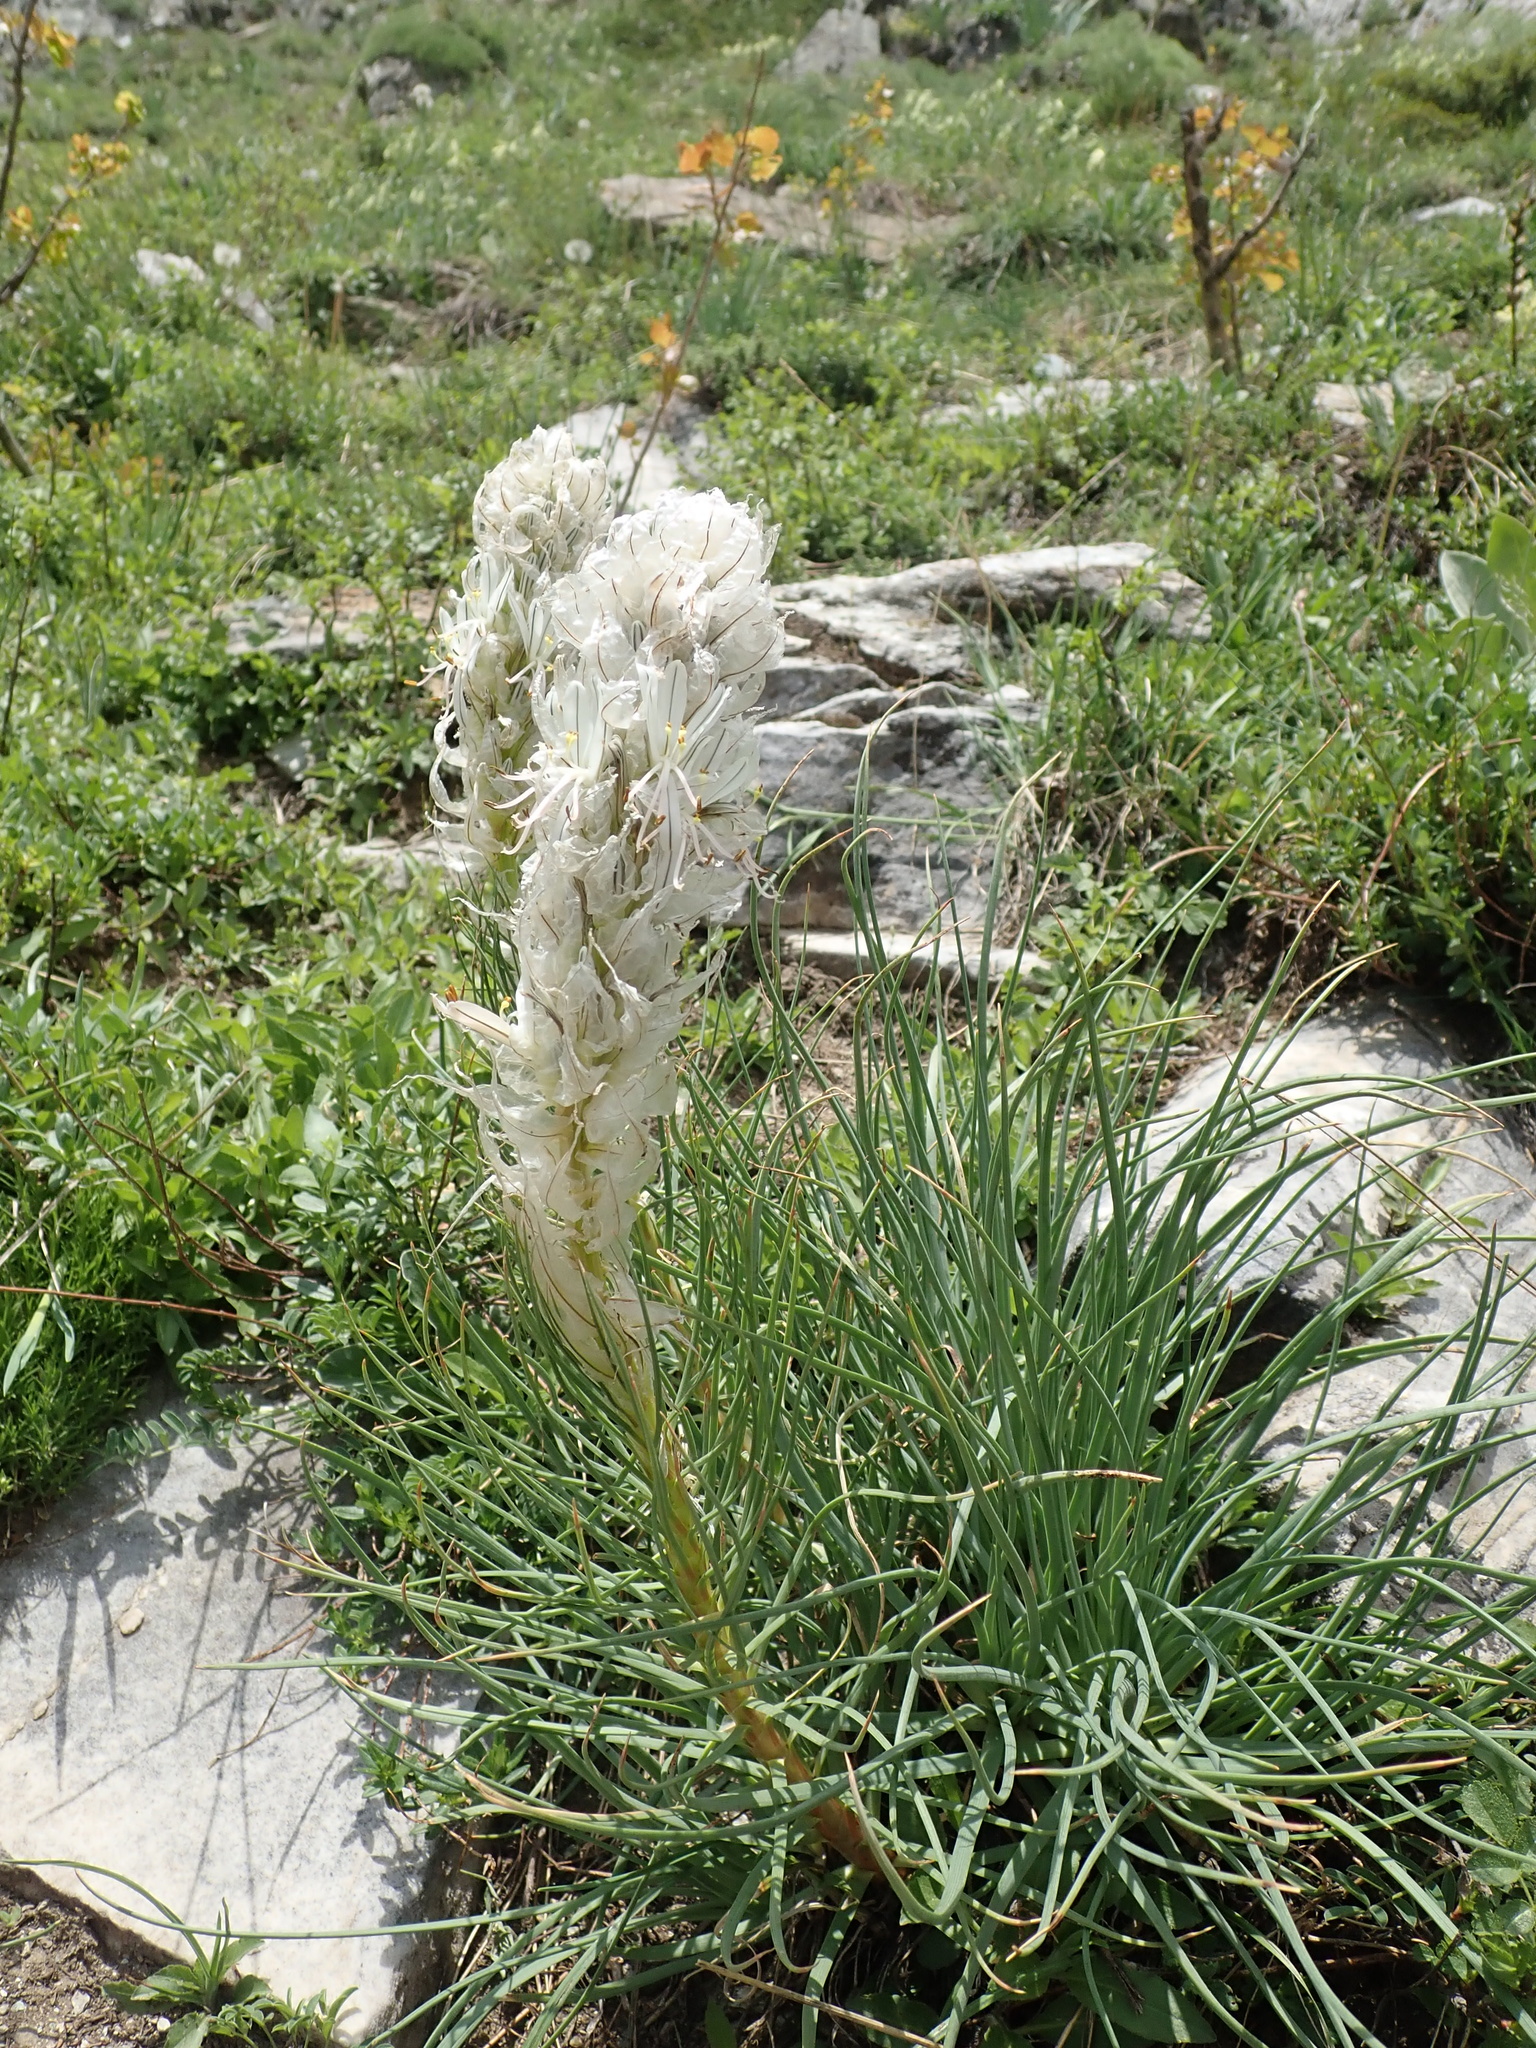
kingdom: Plantae
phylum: Tracheophyta
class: Liliopsida
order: Asparagales
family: Asphodelaceae
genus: Asphodeline
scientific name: Asphodeline taurica
